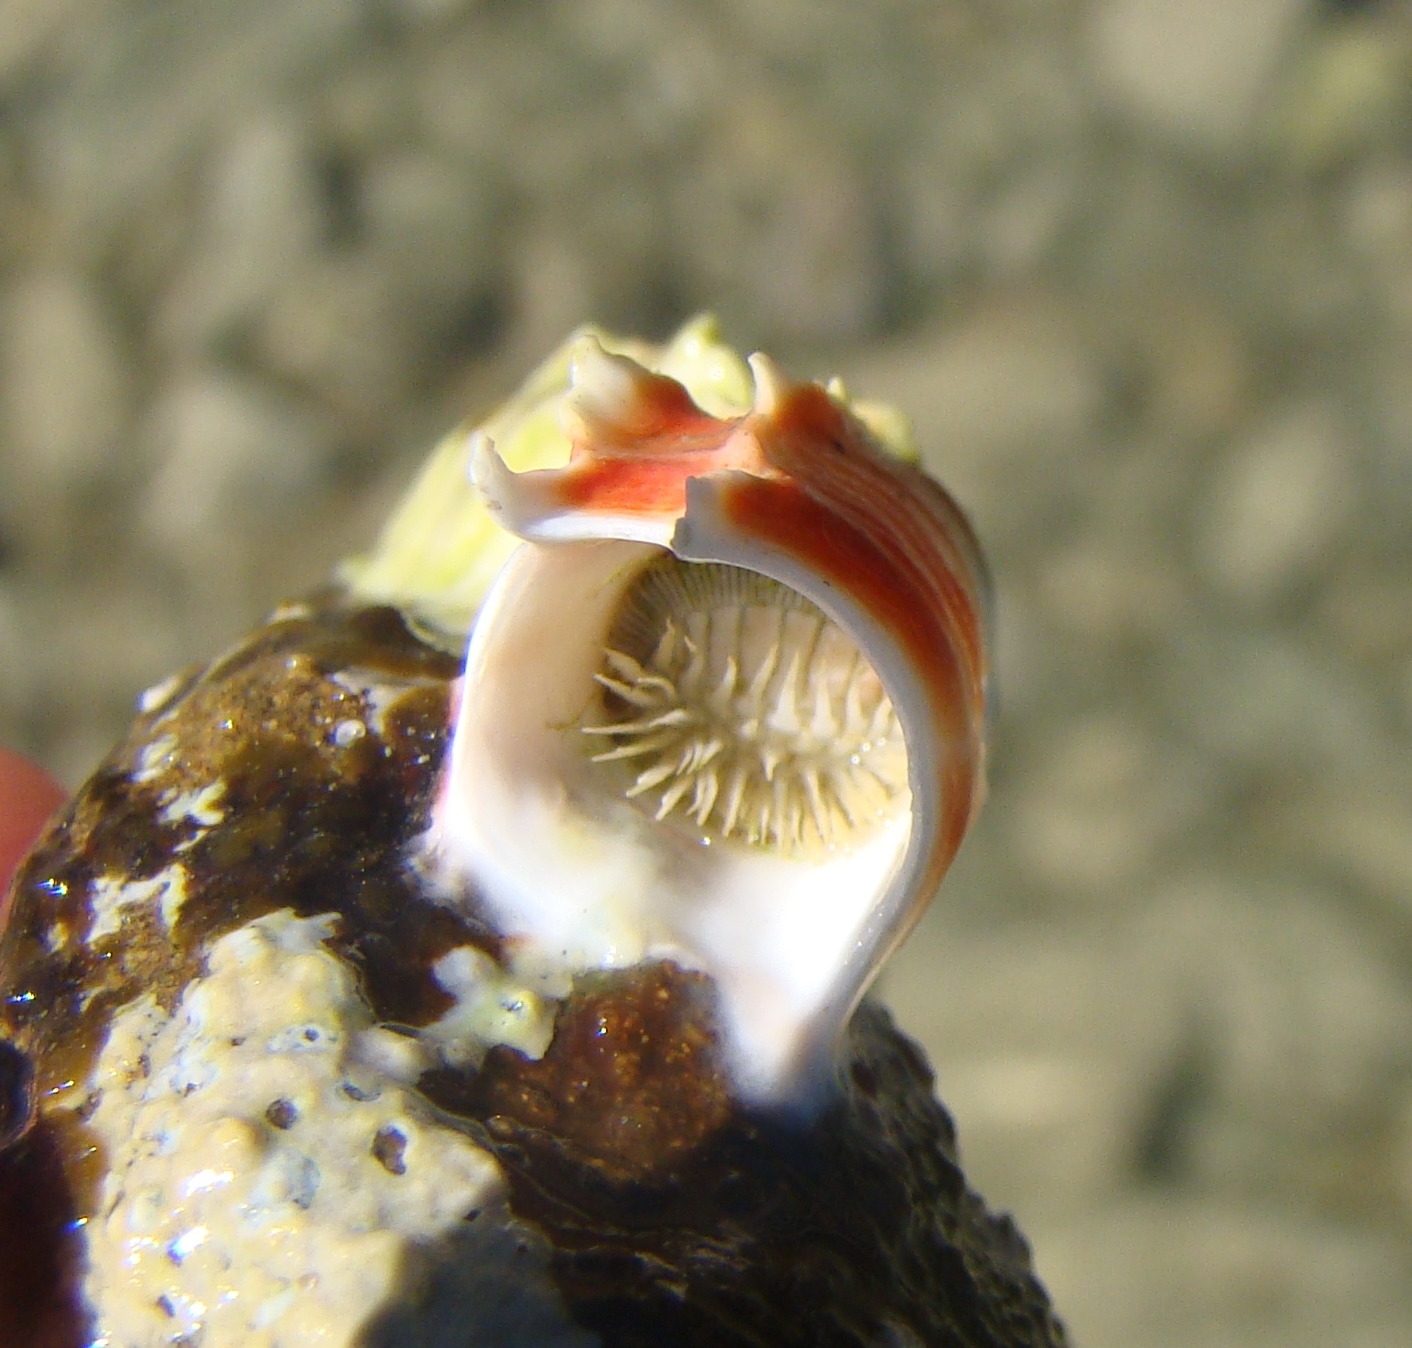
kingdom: Animalia
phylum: Annelida
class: Polychaeta
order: Sabellida
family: Serpulidae
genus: Galeolaria
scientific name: Galeolaria hystrix
